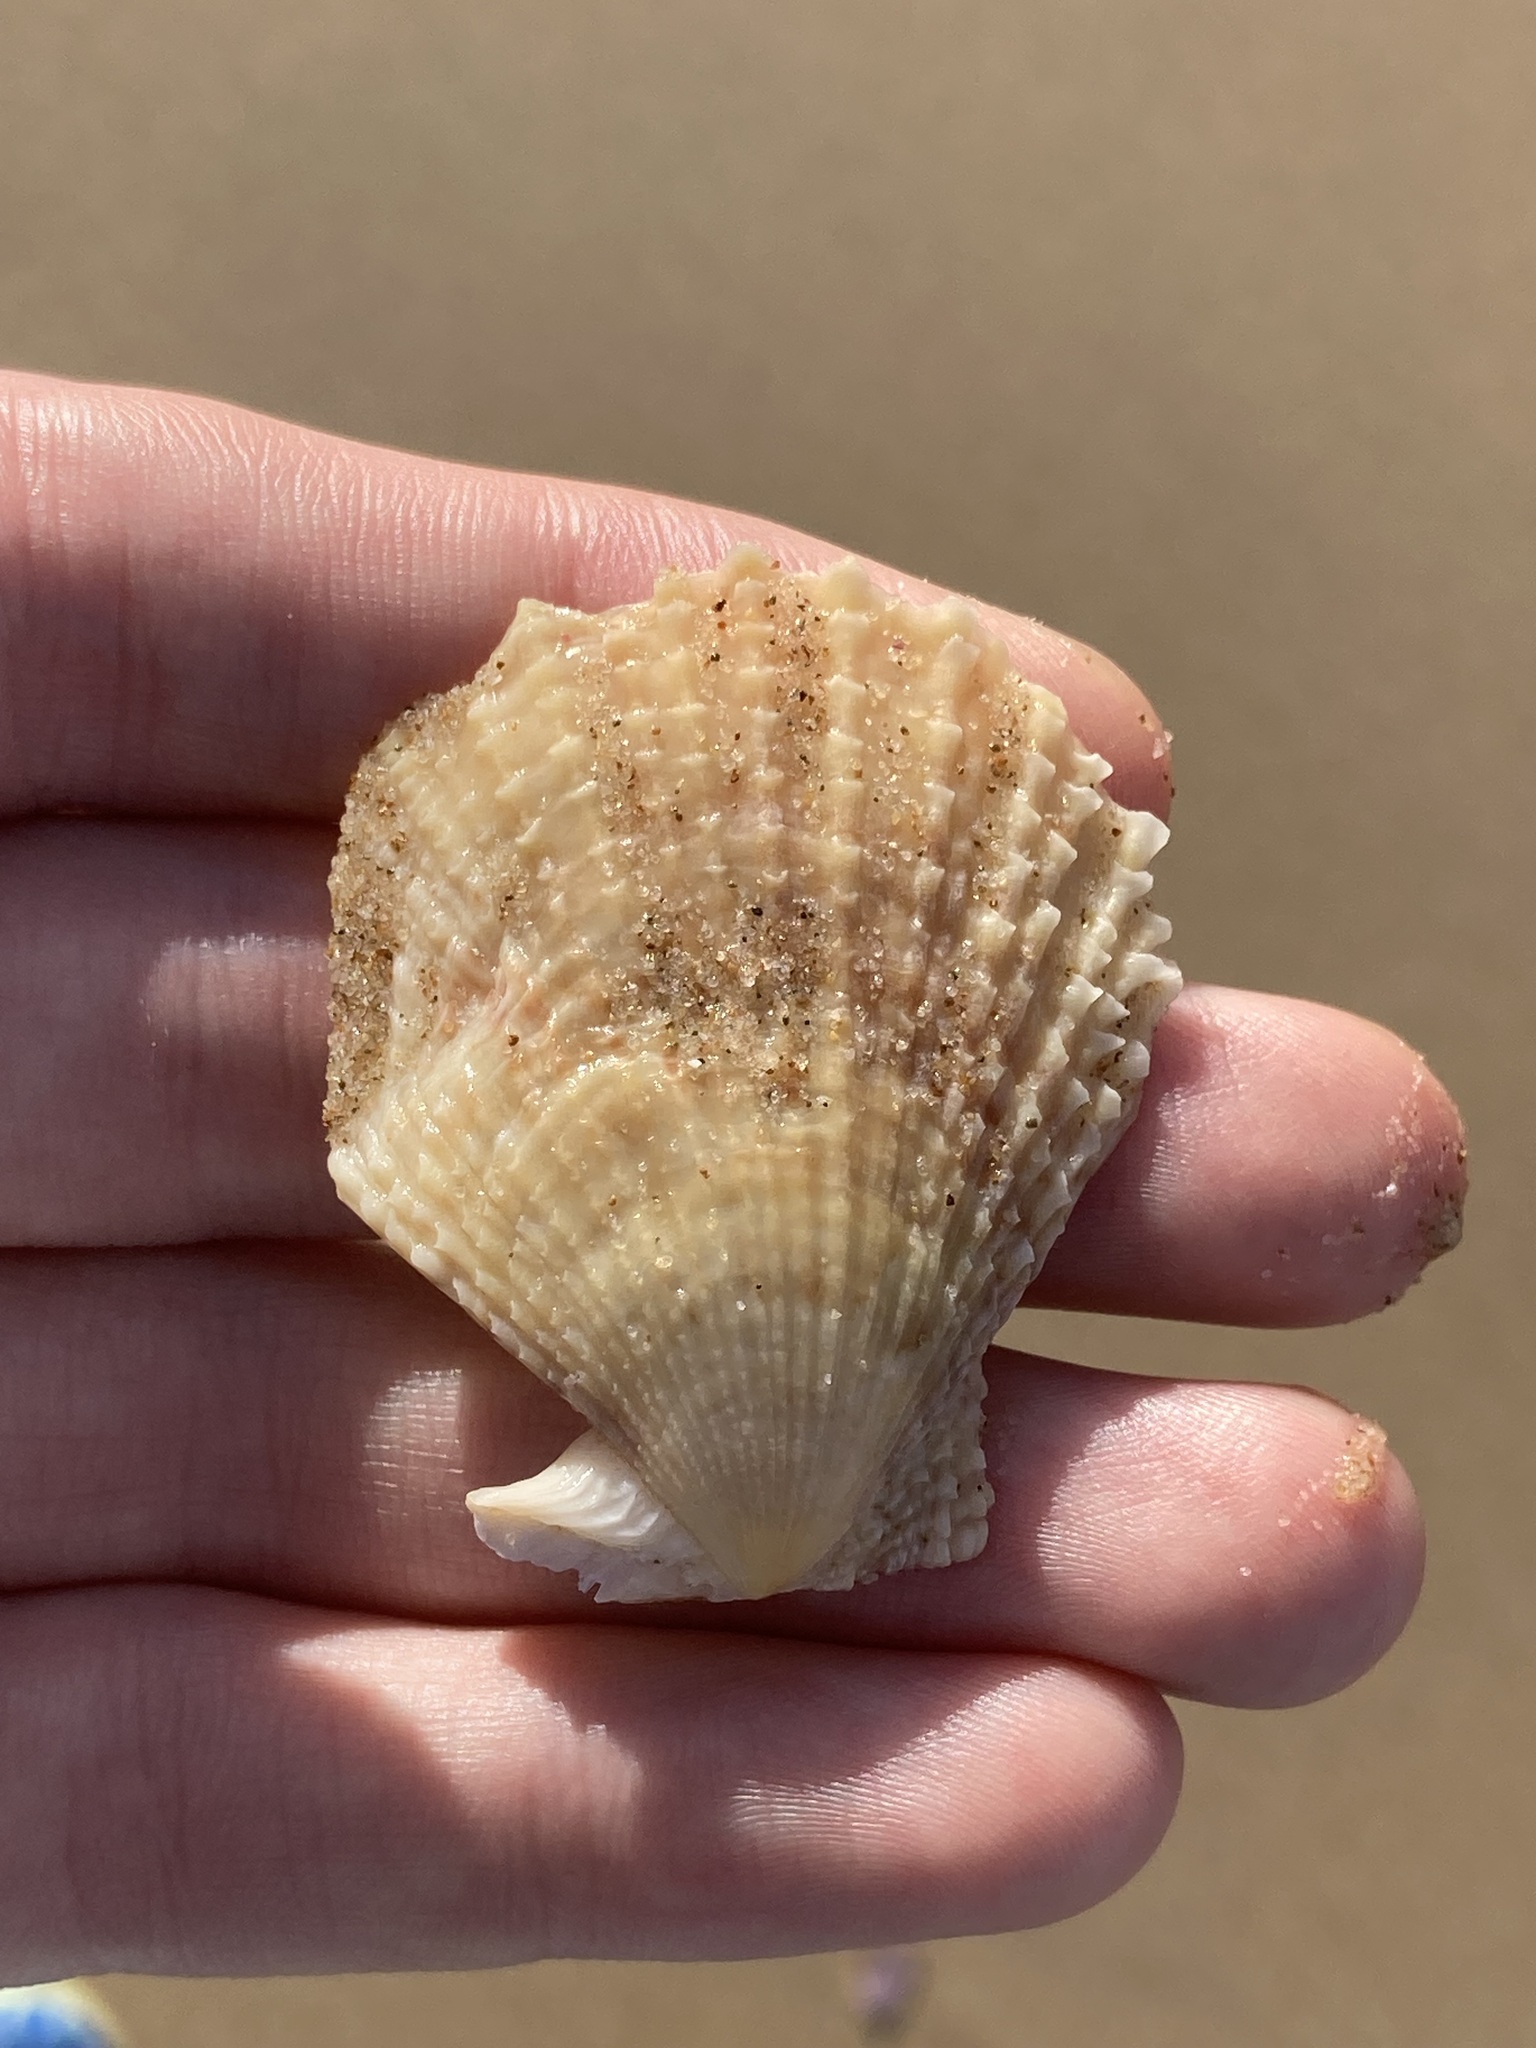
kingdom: Animalia
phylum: Mollusca
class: Bivalvia
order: Pectinida
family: Pectinidae
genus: Scaeochlamys
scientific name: Scaeochlamys livida
